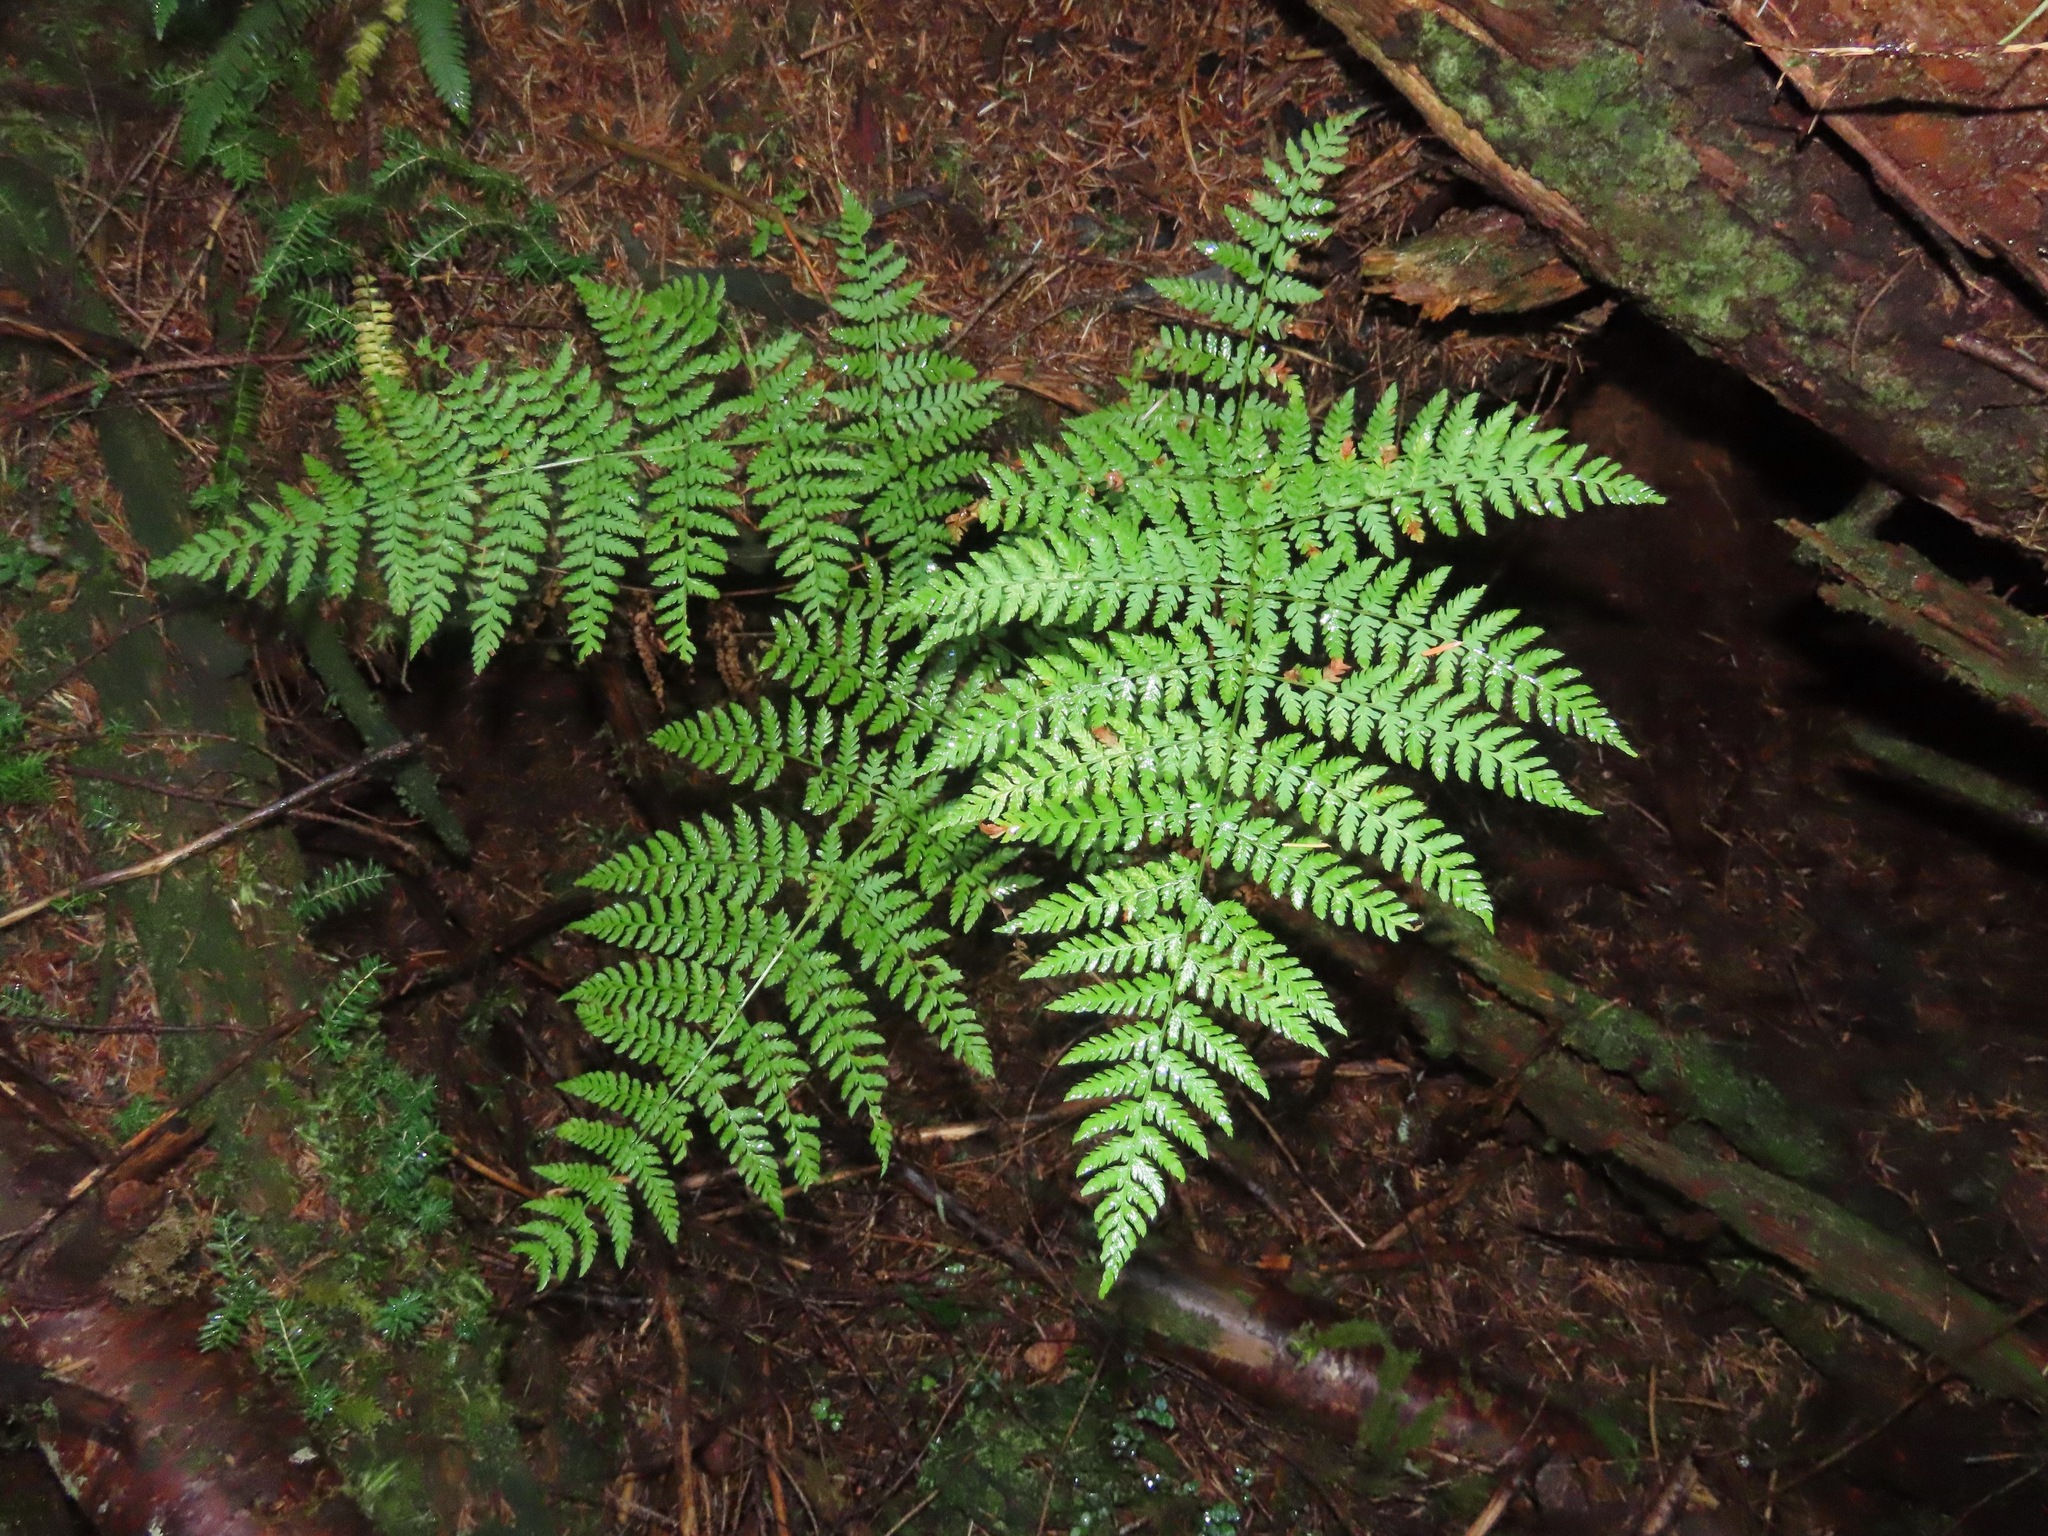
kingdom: Plantae
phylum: Tracheophyta
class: Polypodiopsida
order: Polypodiales
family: Dryopteridaceae
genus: Dryopteris
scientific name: Dryopteris expansa
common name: Northern buckler fern
